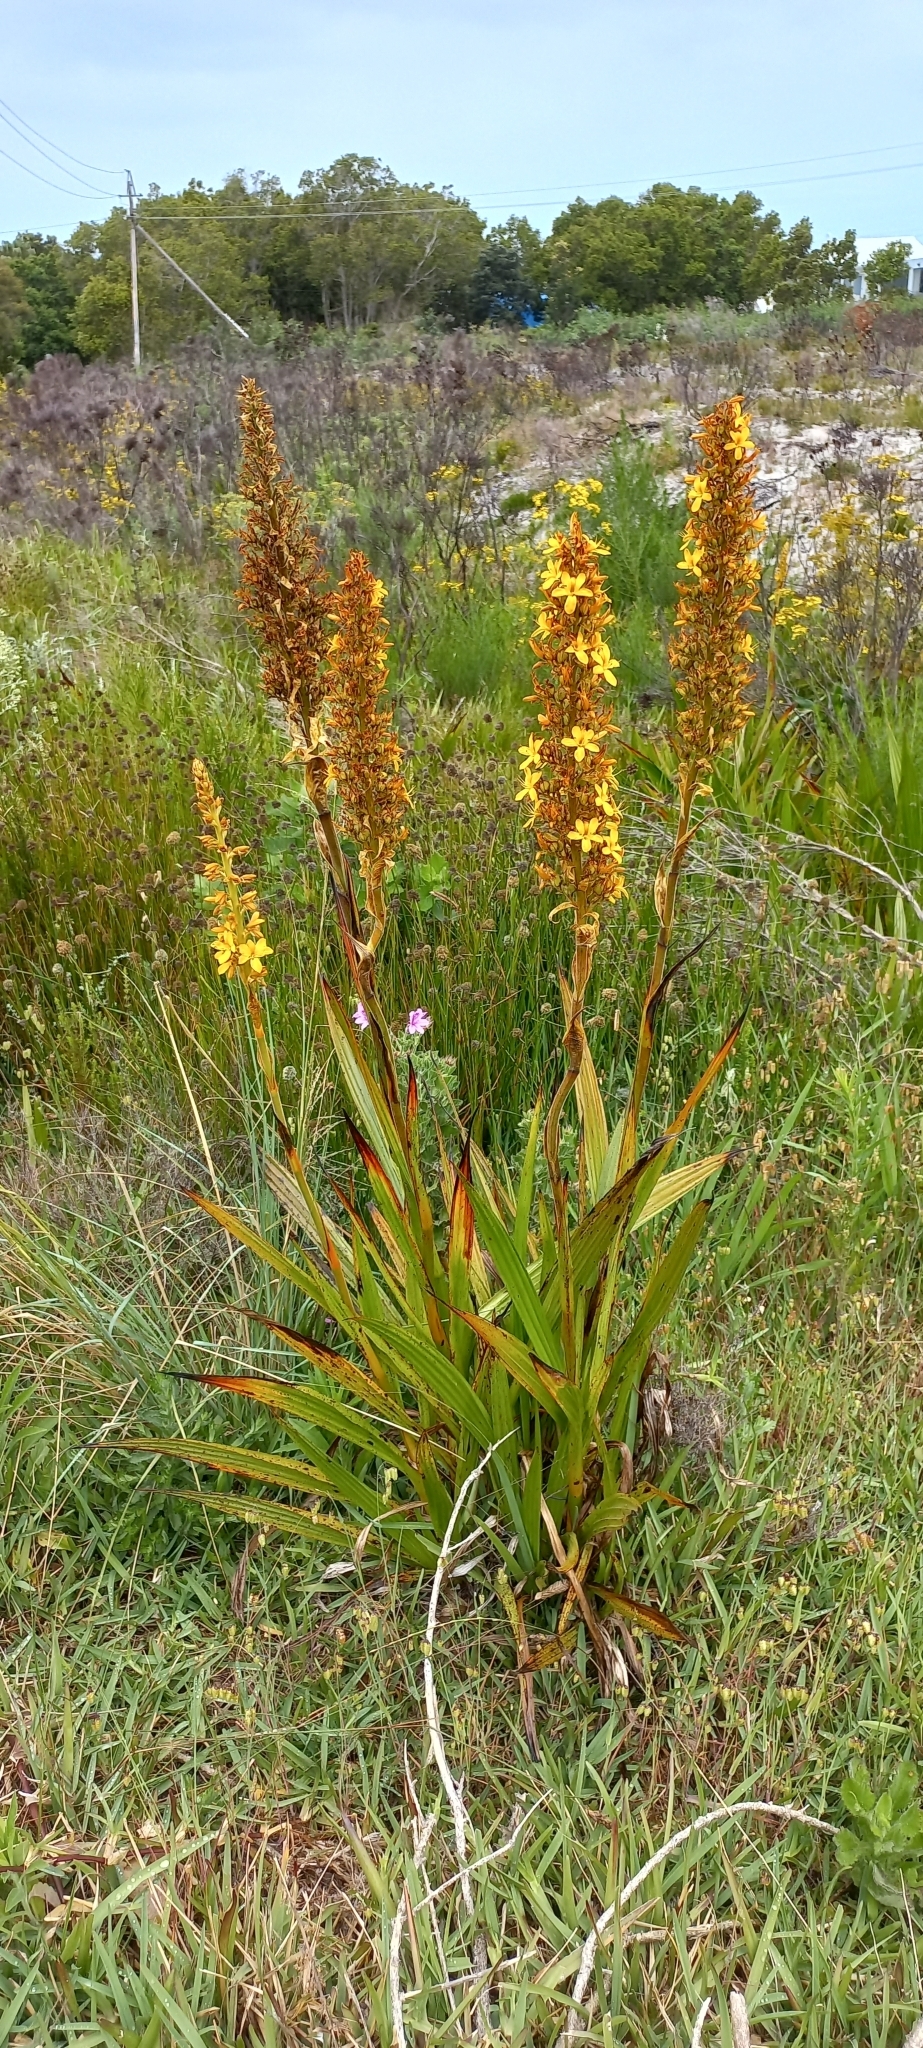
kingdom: Plantae
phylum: Tracheophyta
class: Liliopsida
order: Commelinales
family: Haemodoraceae
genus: Wachendorfia
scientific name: Wachendorfia thyrsiflora
